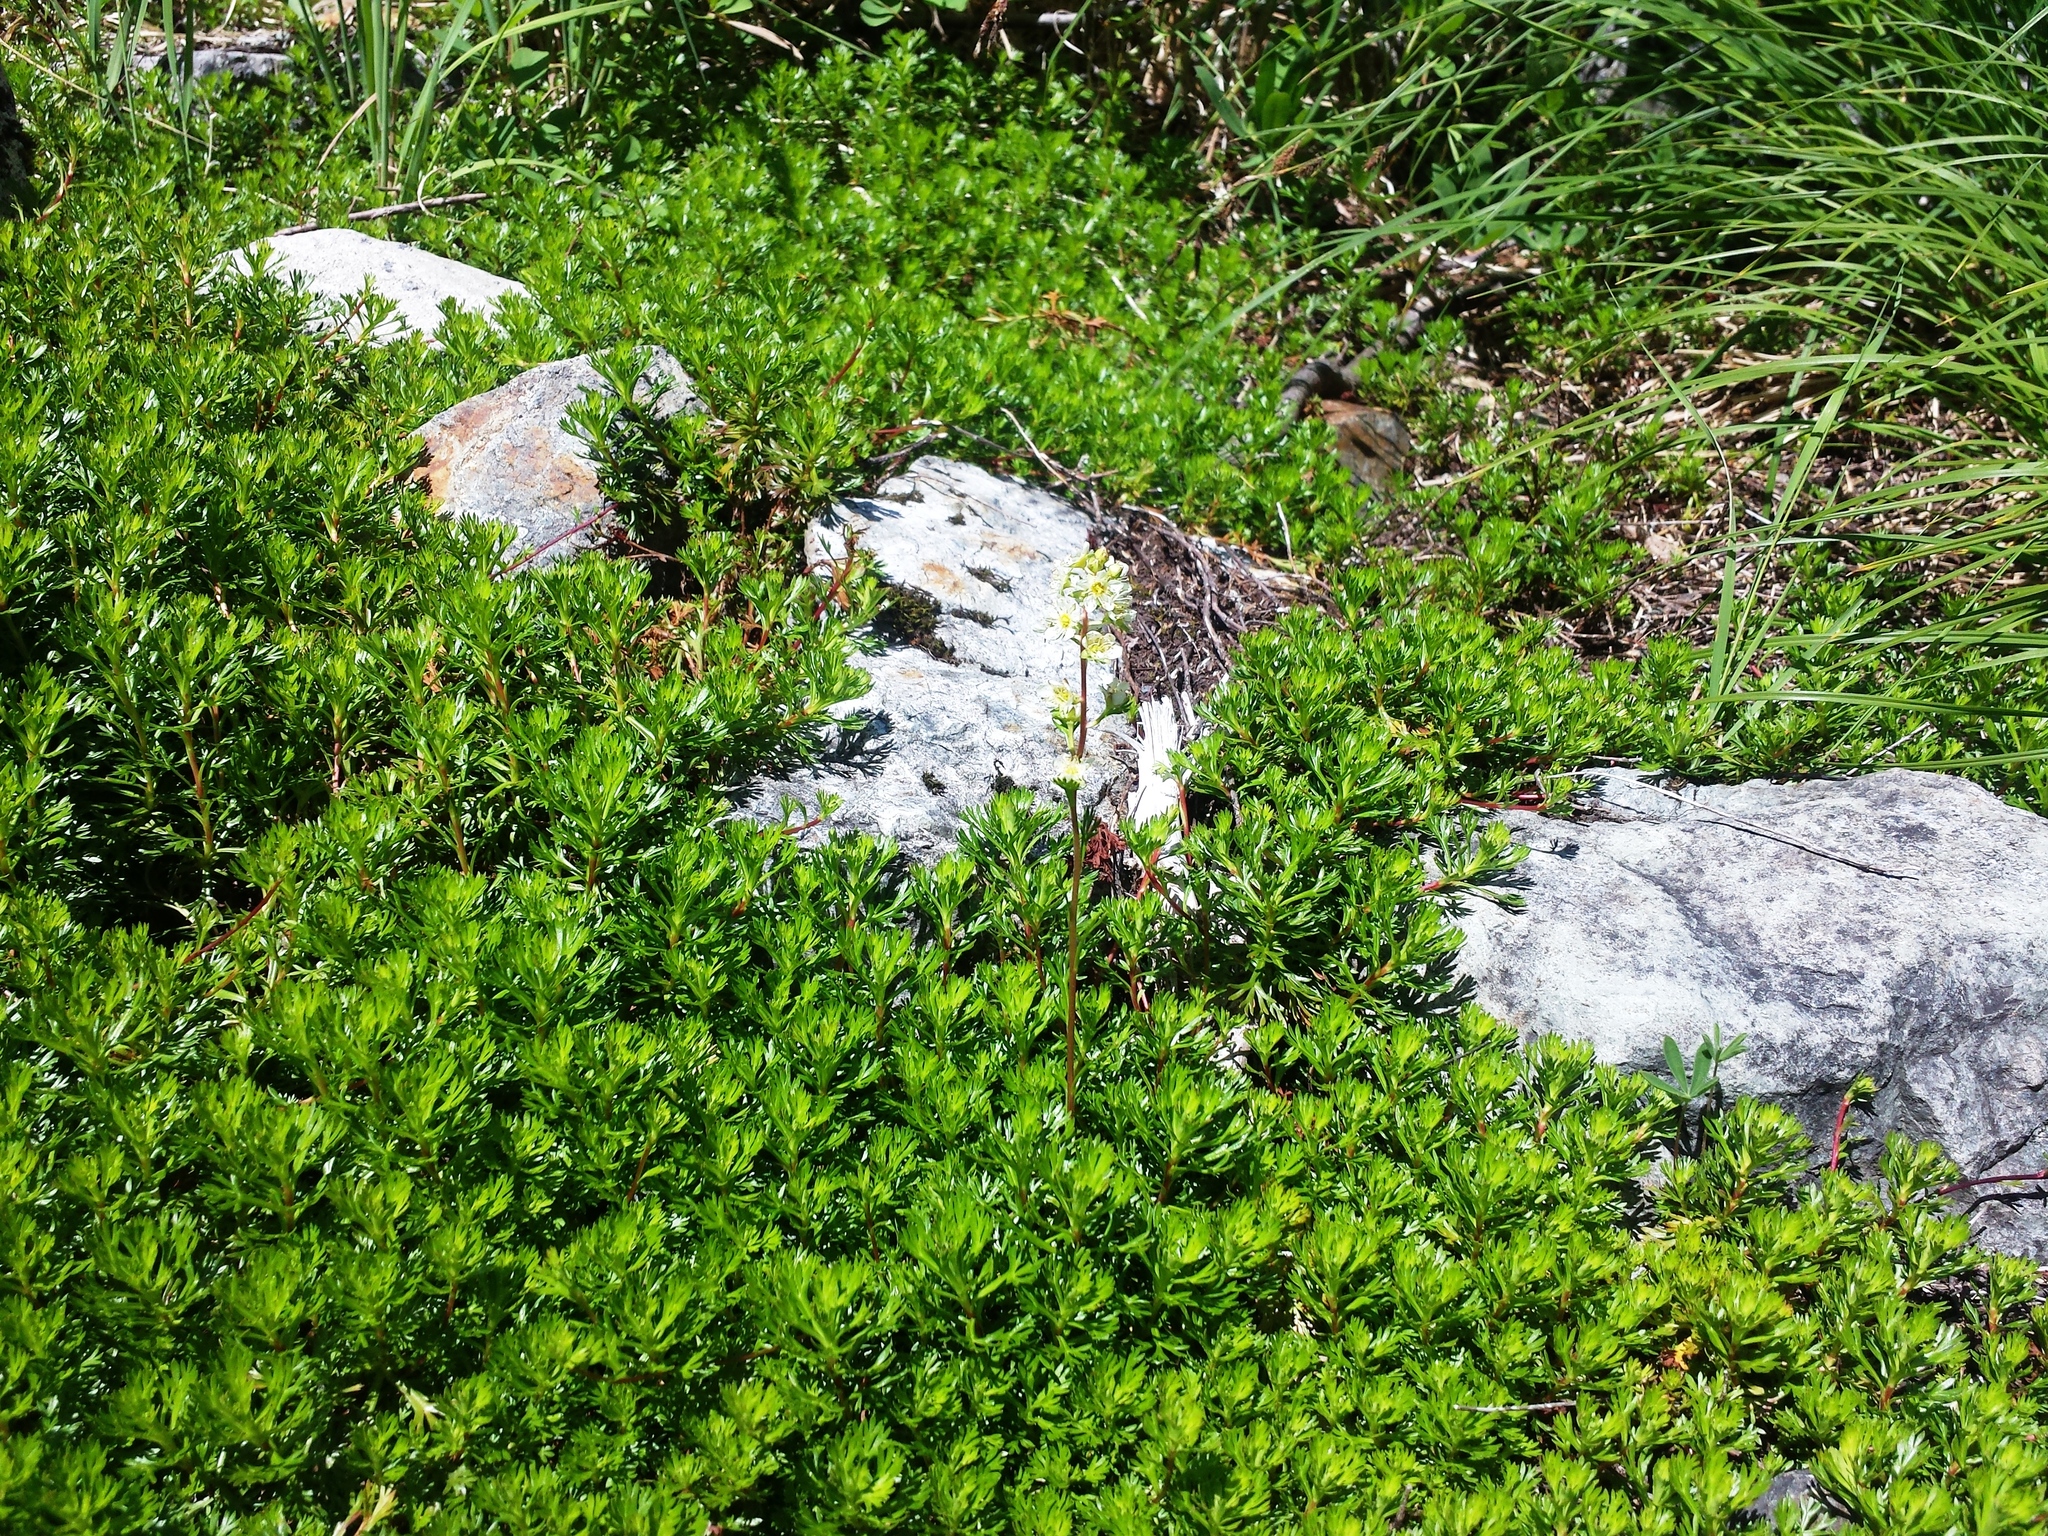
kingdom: Plantae
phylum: Tracheophyta
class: Magnoliopsida
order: Rosales
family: Rosaceae
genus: Luetkea
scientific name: Luetkea pectinata
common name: Partridgefoot
